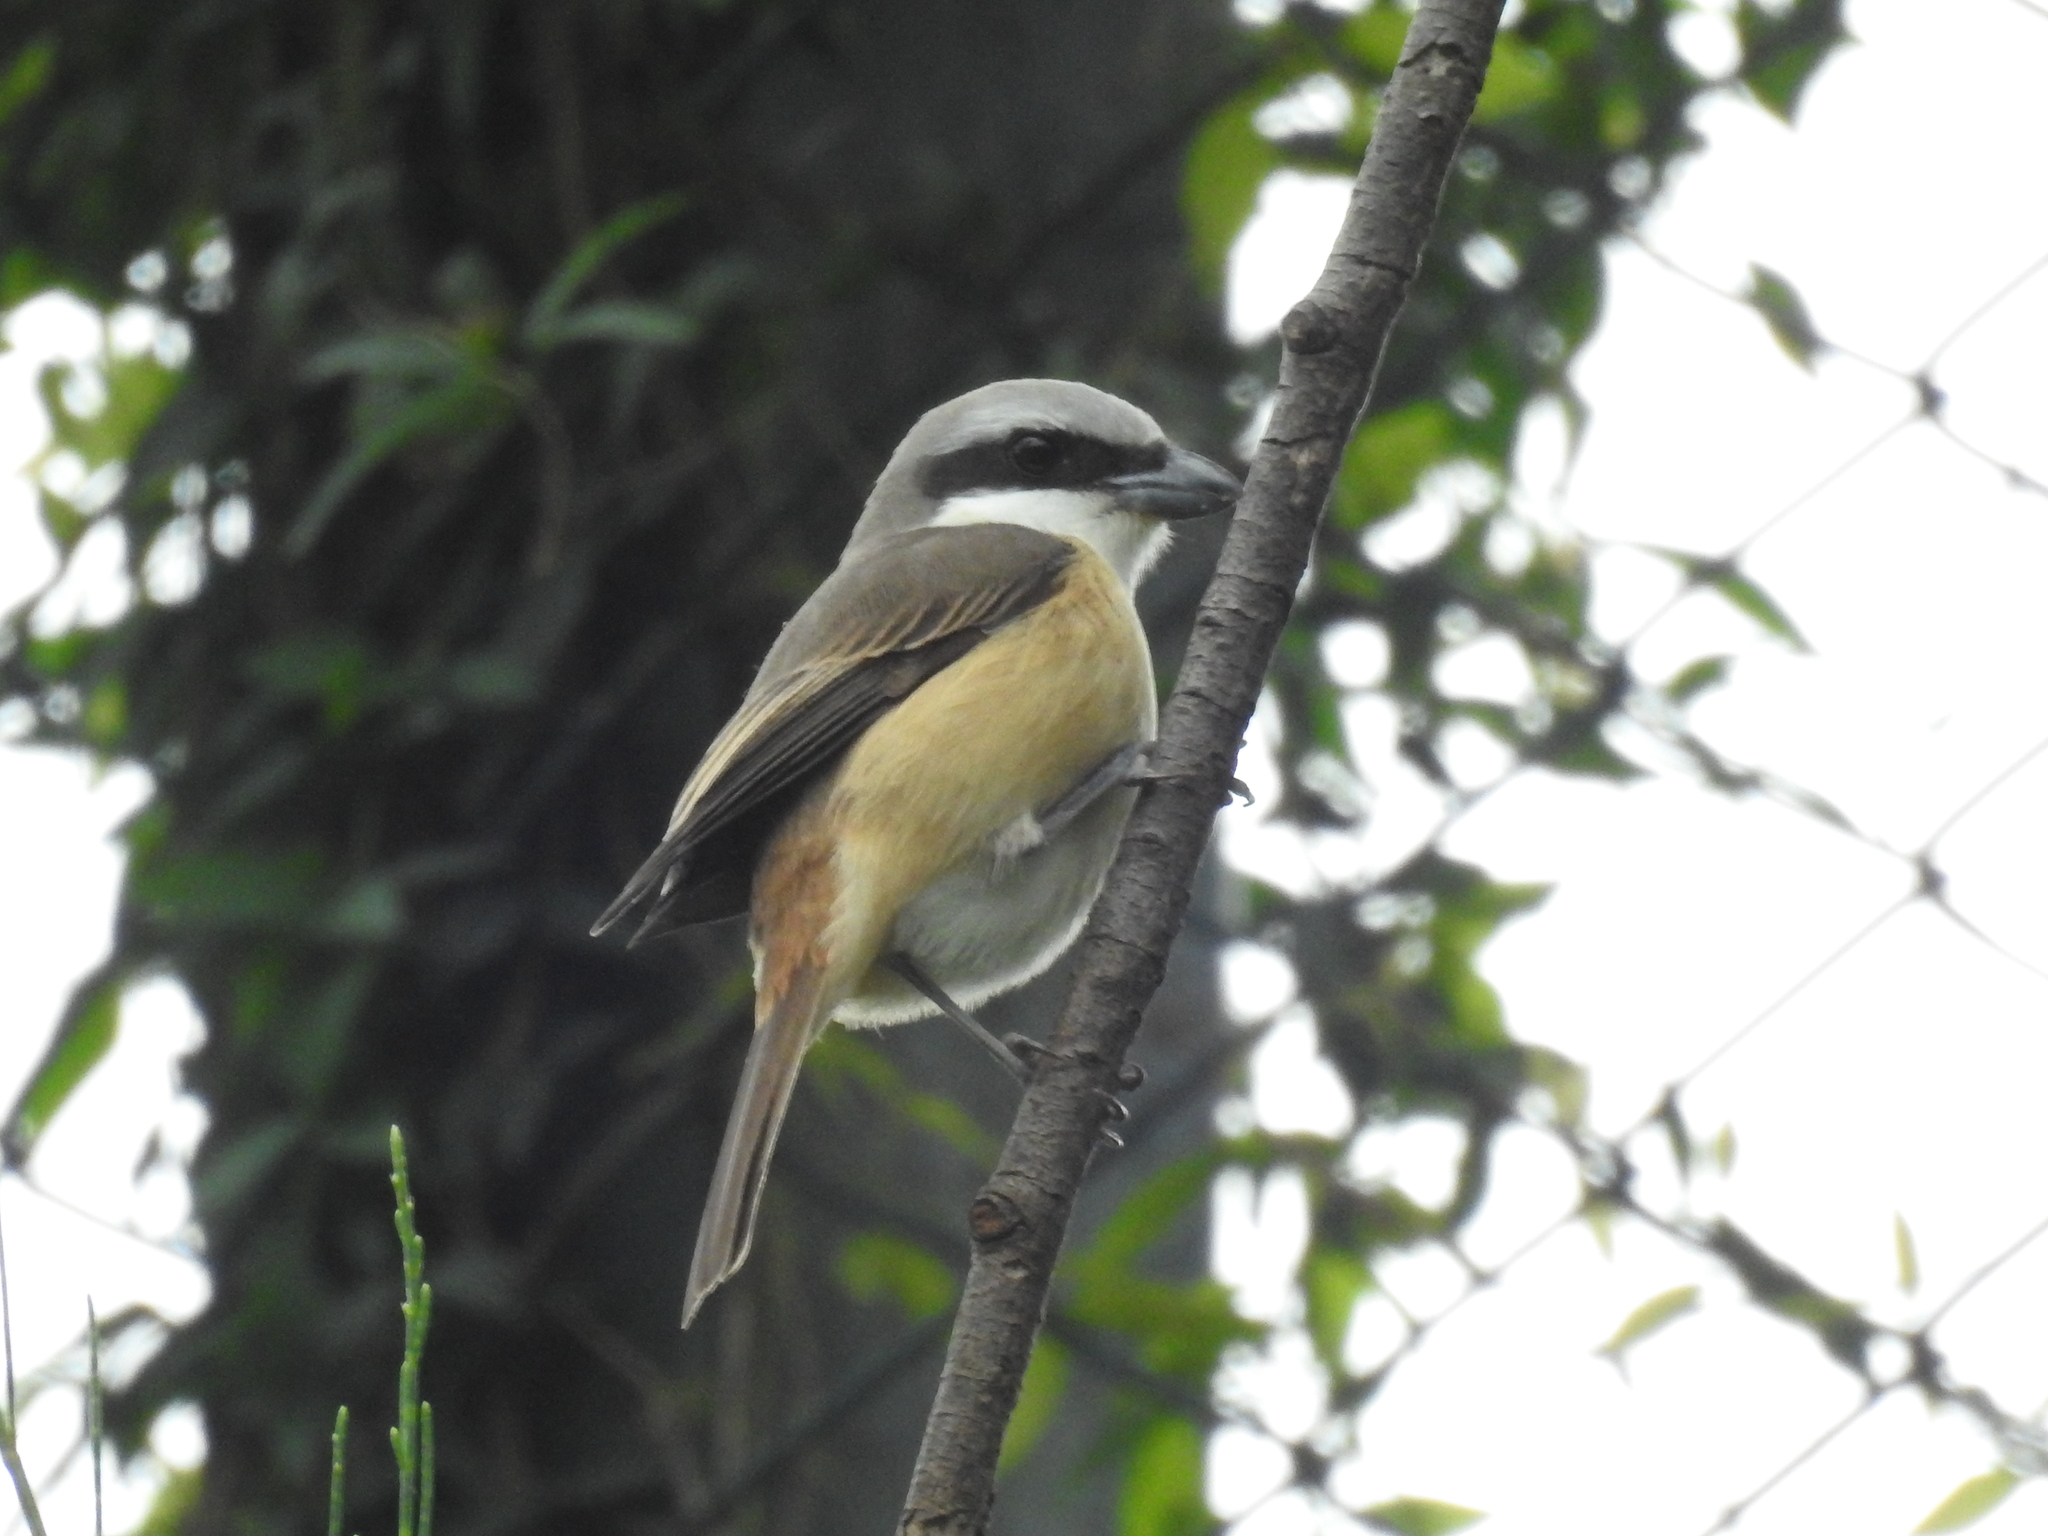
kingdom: Animalia
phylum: Chordata
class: Aves
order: Passeriformes
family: Laniidae
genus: Lanius
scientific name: Lanius cristatus
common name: Brown shrike
